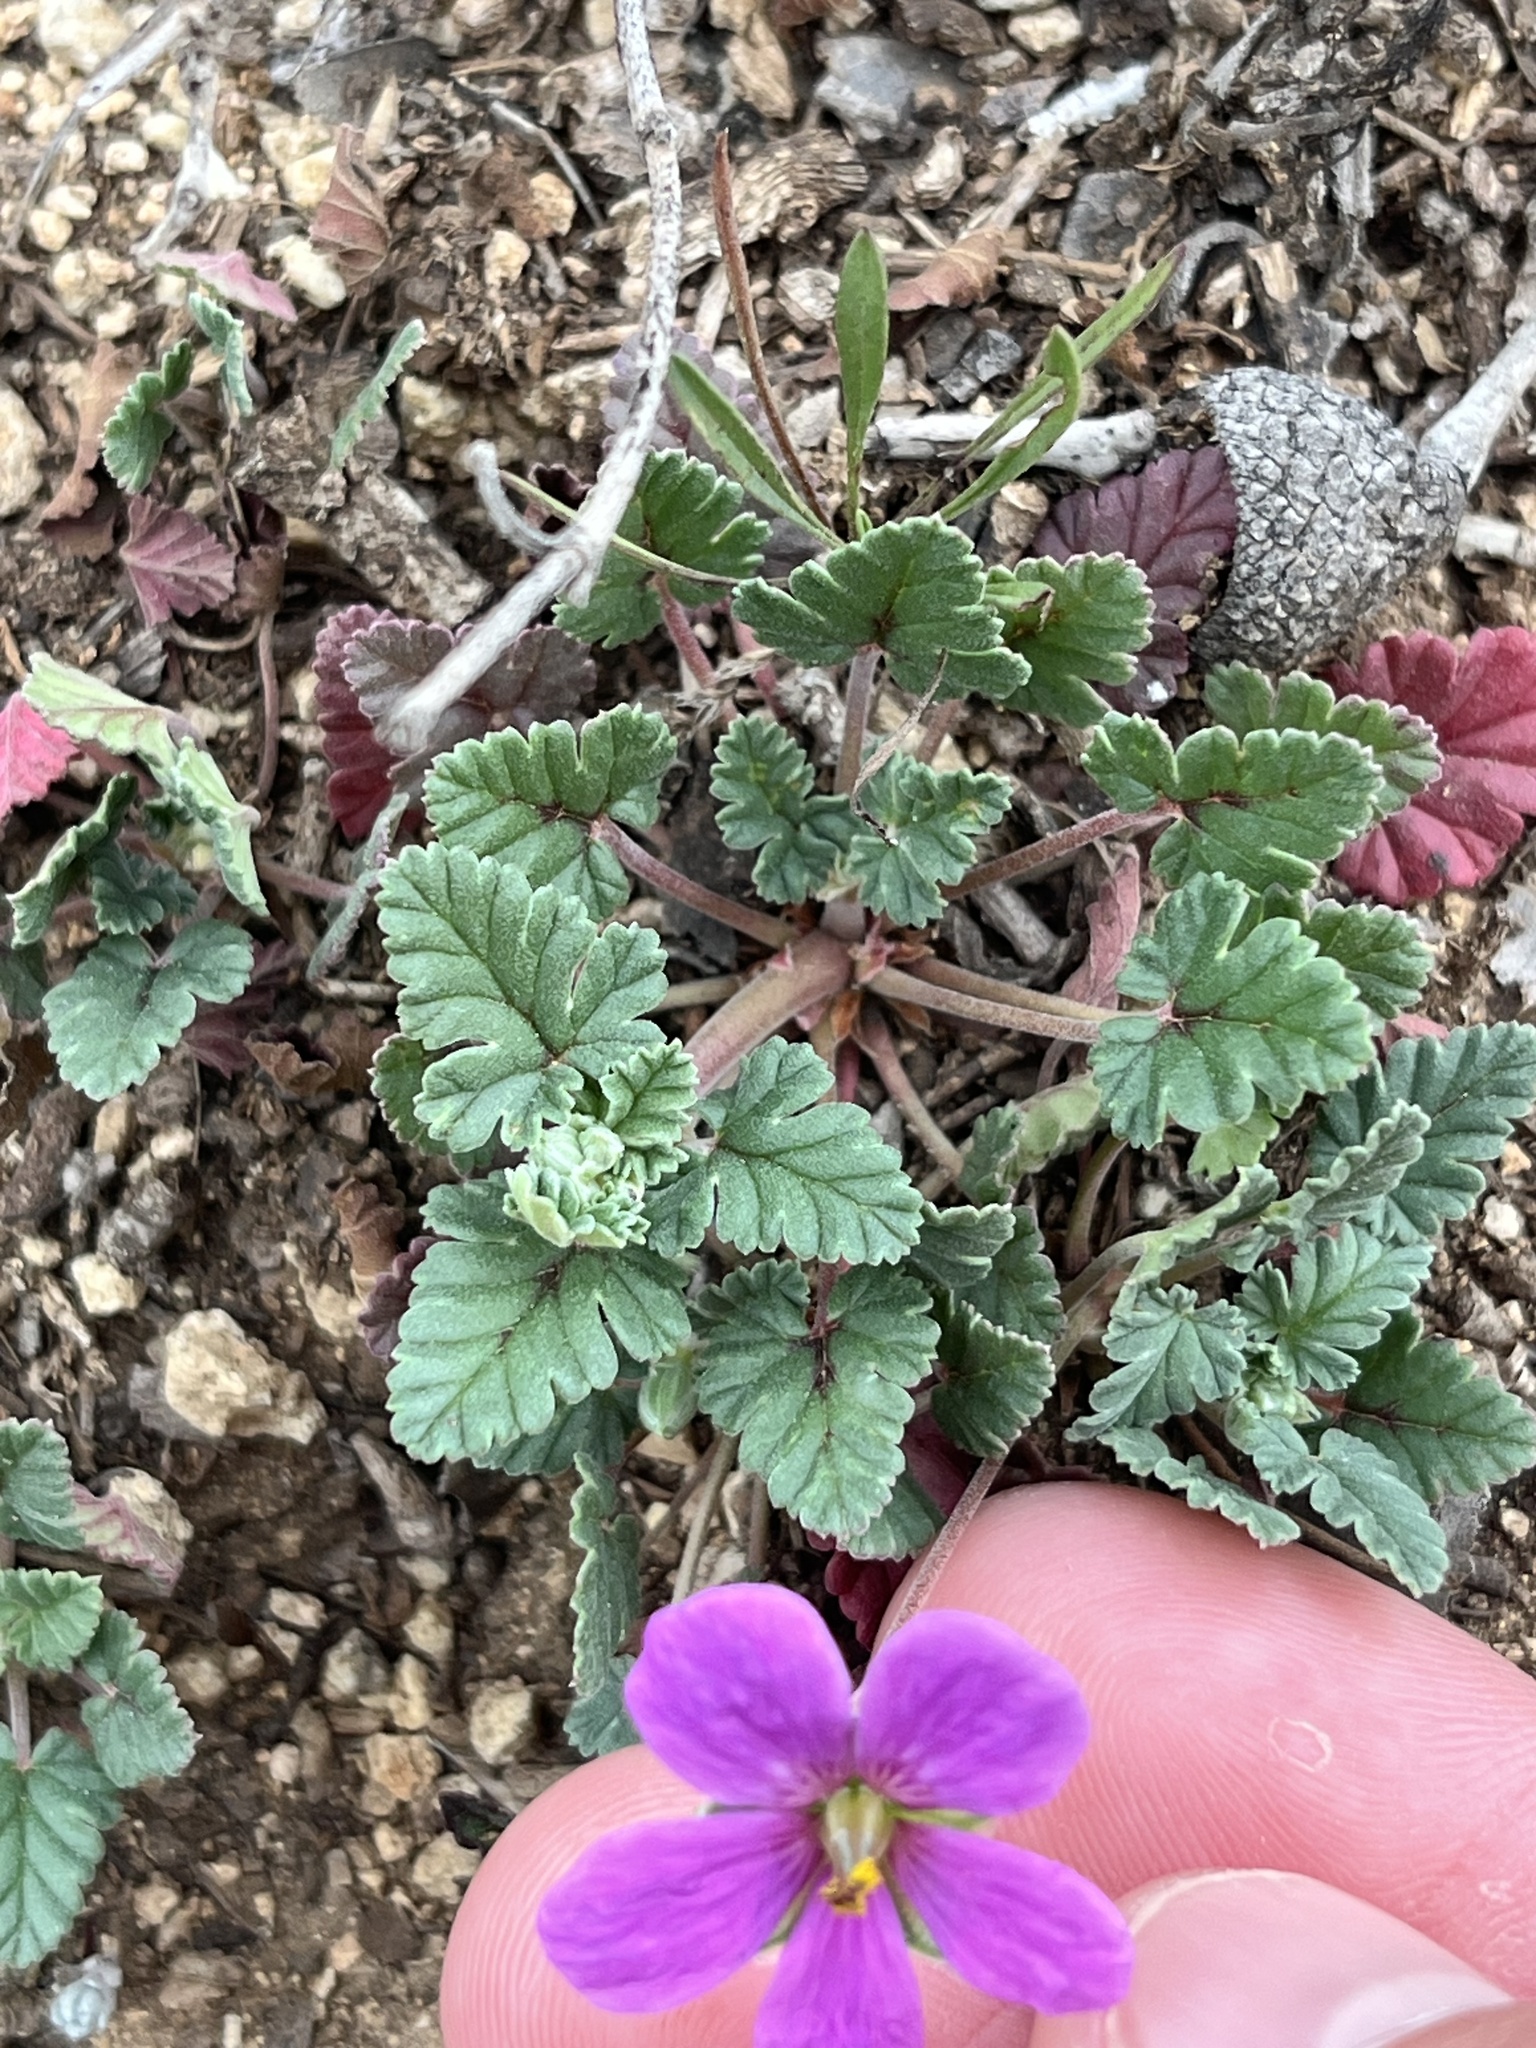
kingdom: Plantae
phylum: Tracheophyta
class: Magnoliopsida
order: Geraniales
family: Geraniaceae
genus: Erodium
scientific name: Erodium texanum
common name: Texas stork's-bill
